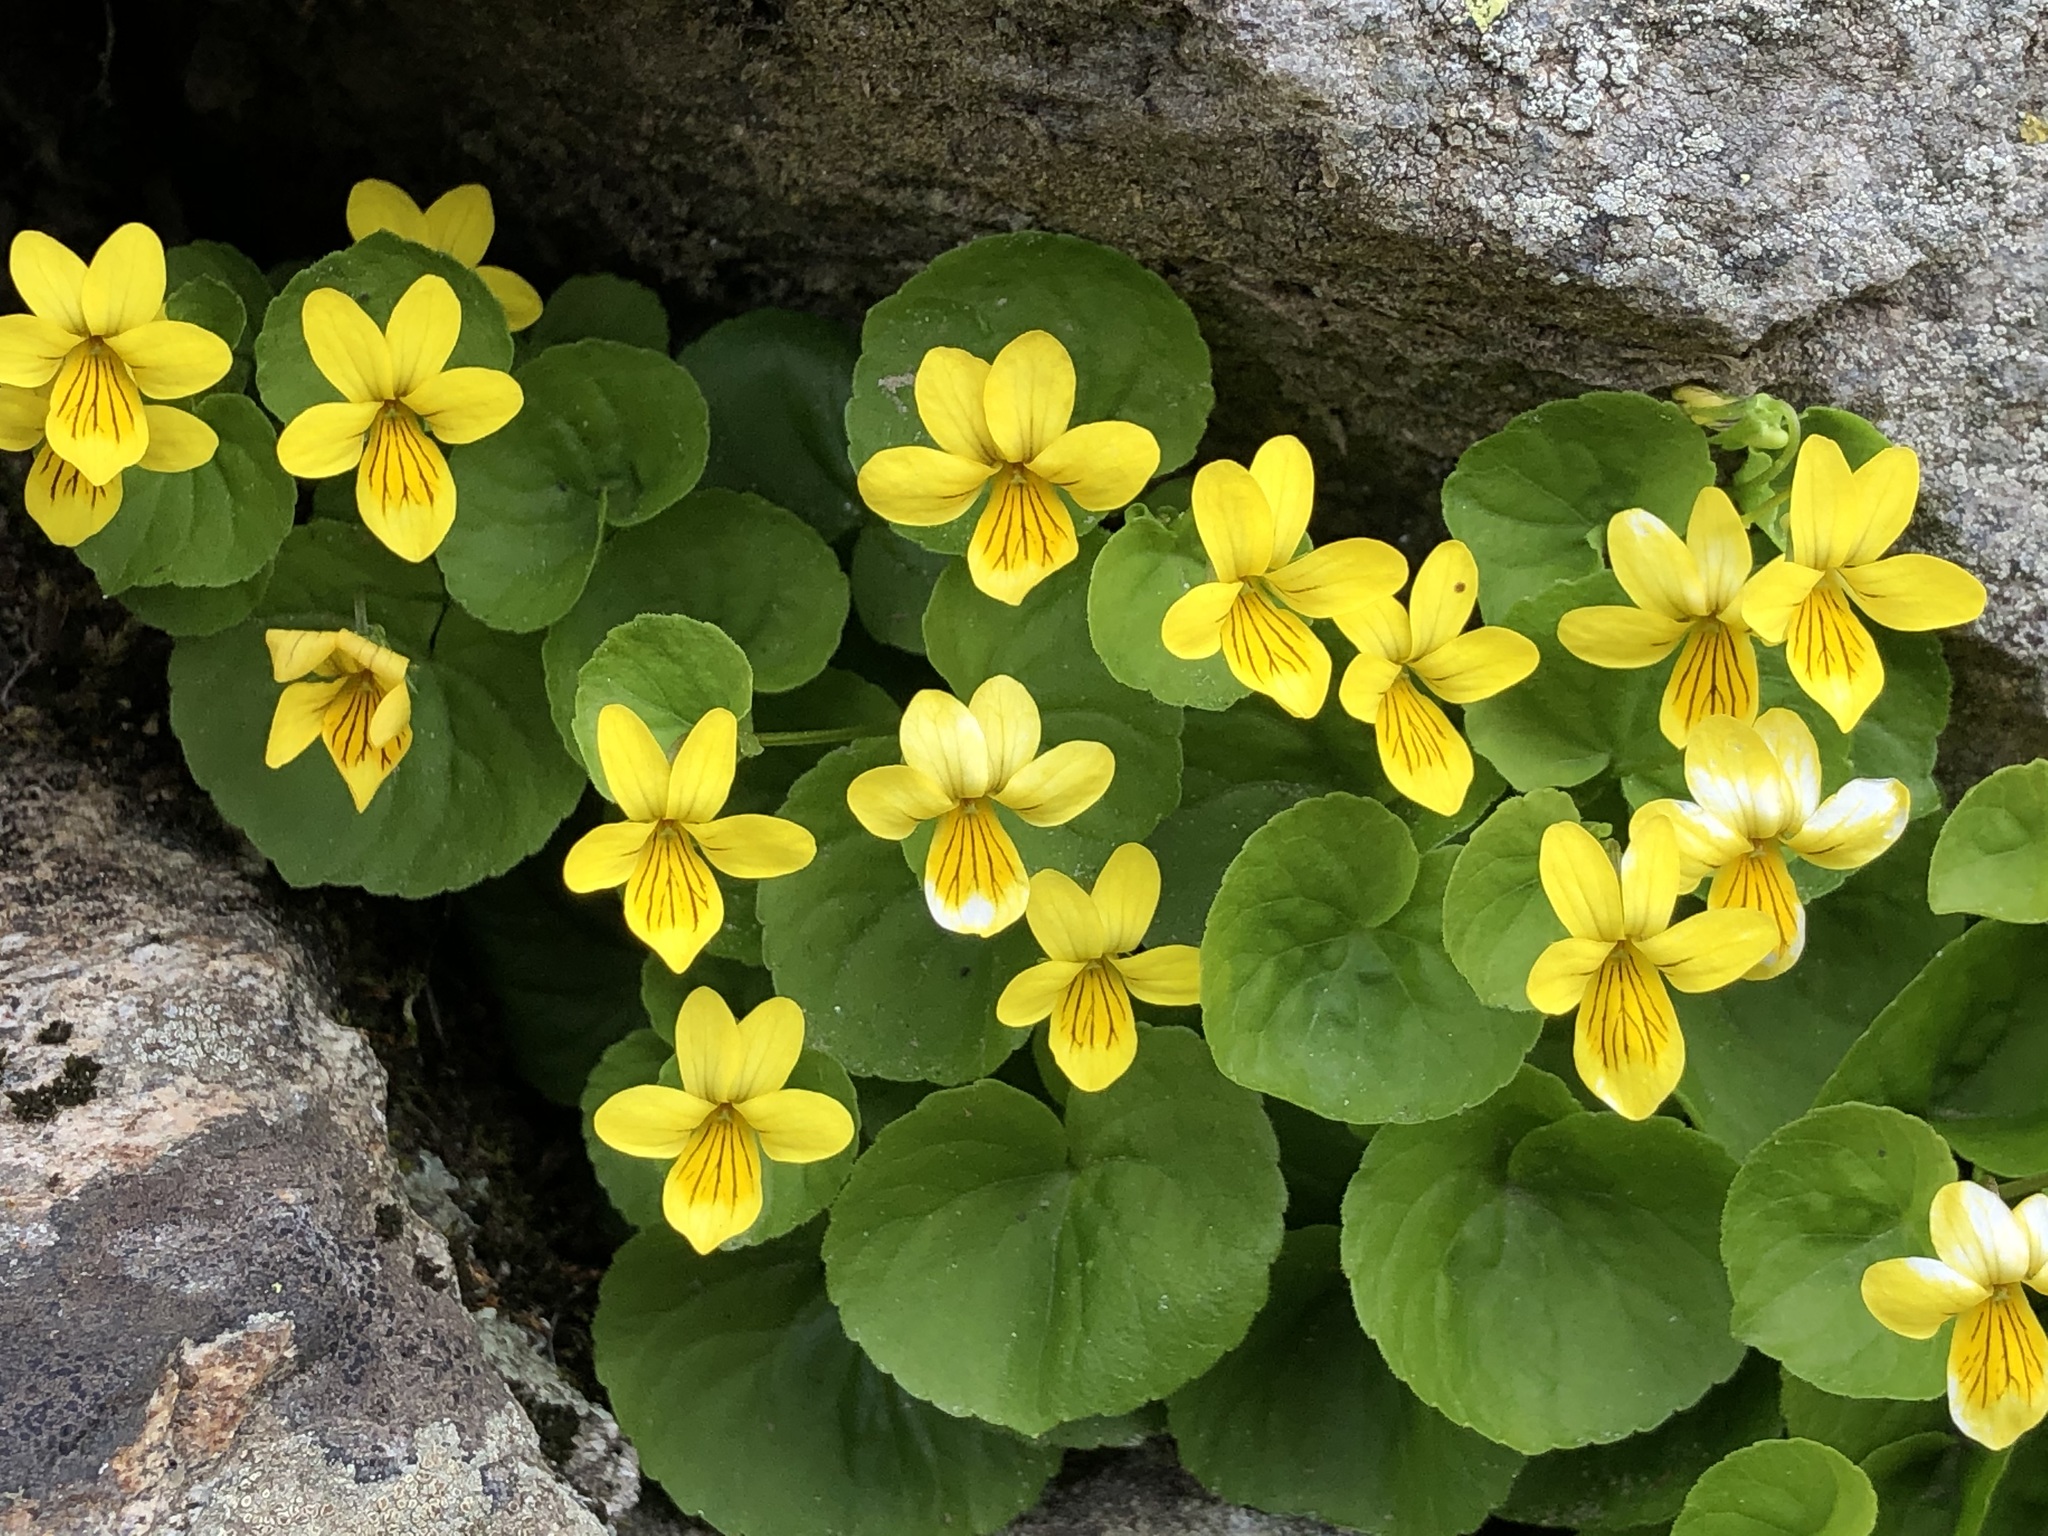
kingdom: Plantae
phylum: Tracheophyta
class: Magnoliopsida
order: Malpighiales
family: Violaceae
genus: Viola
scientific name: Viola biflora
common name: Alpine yellow violet
